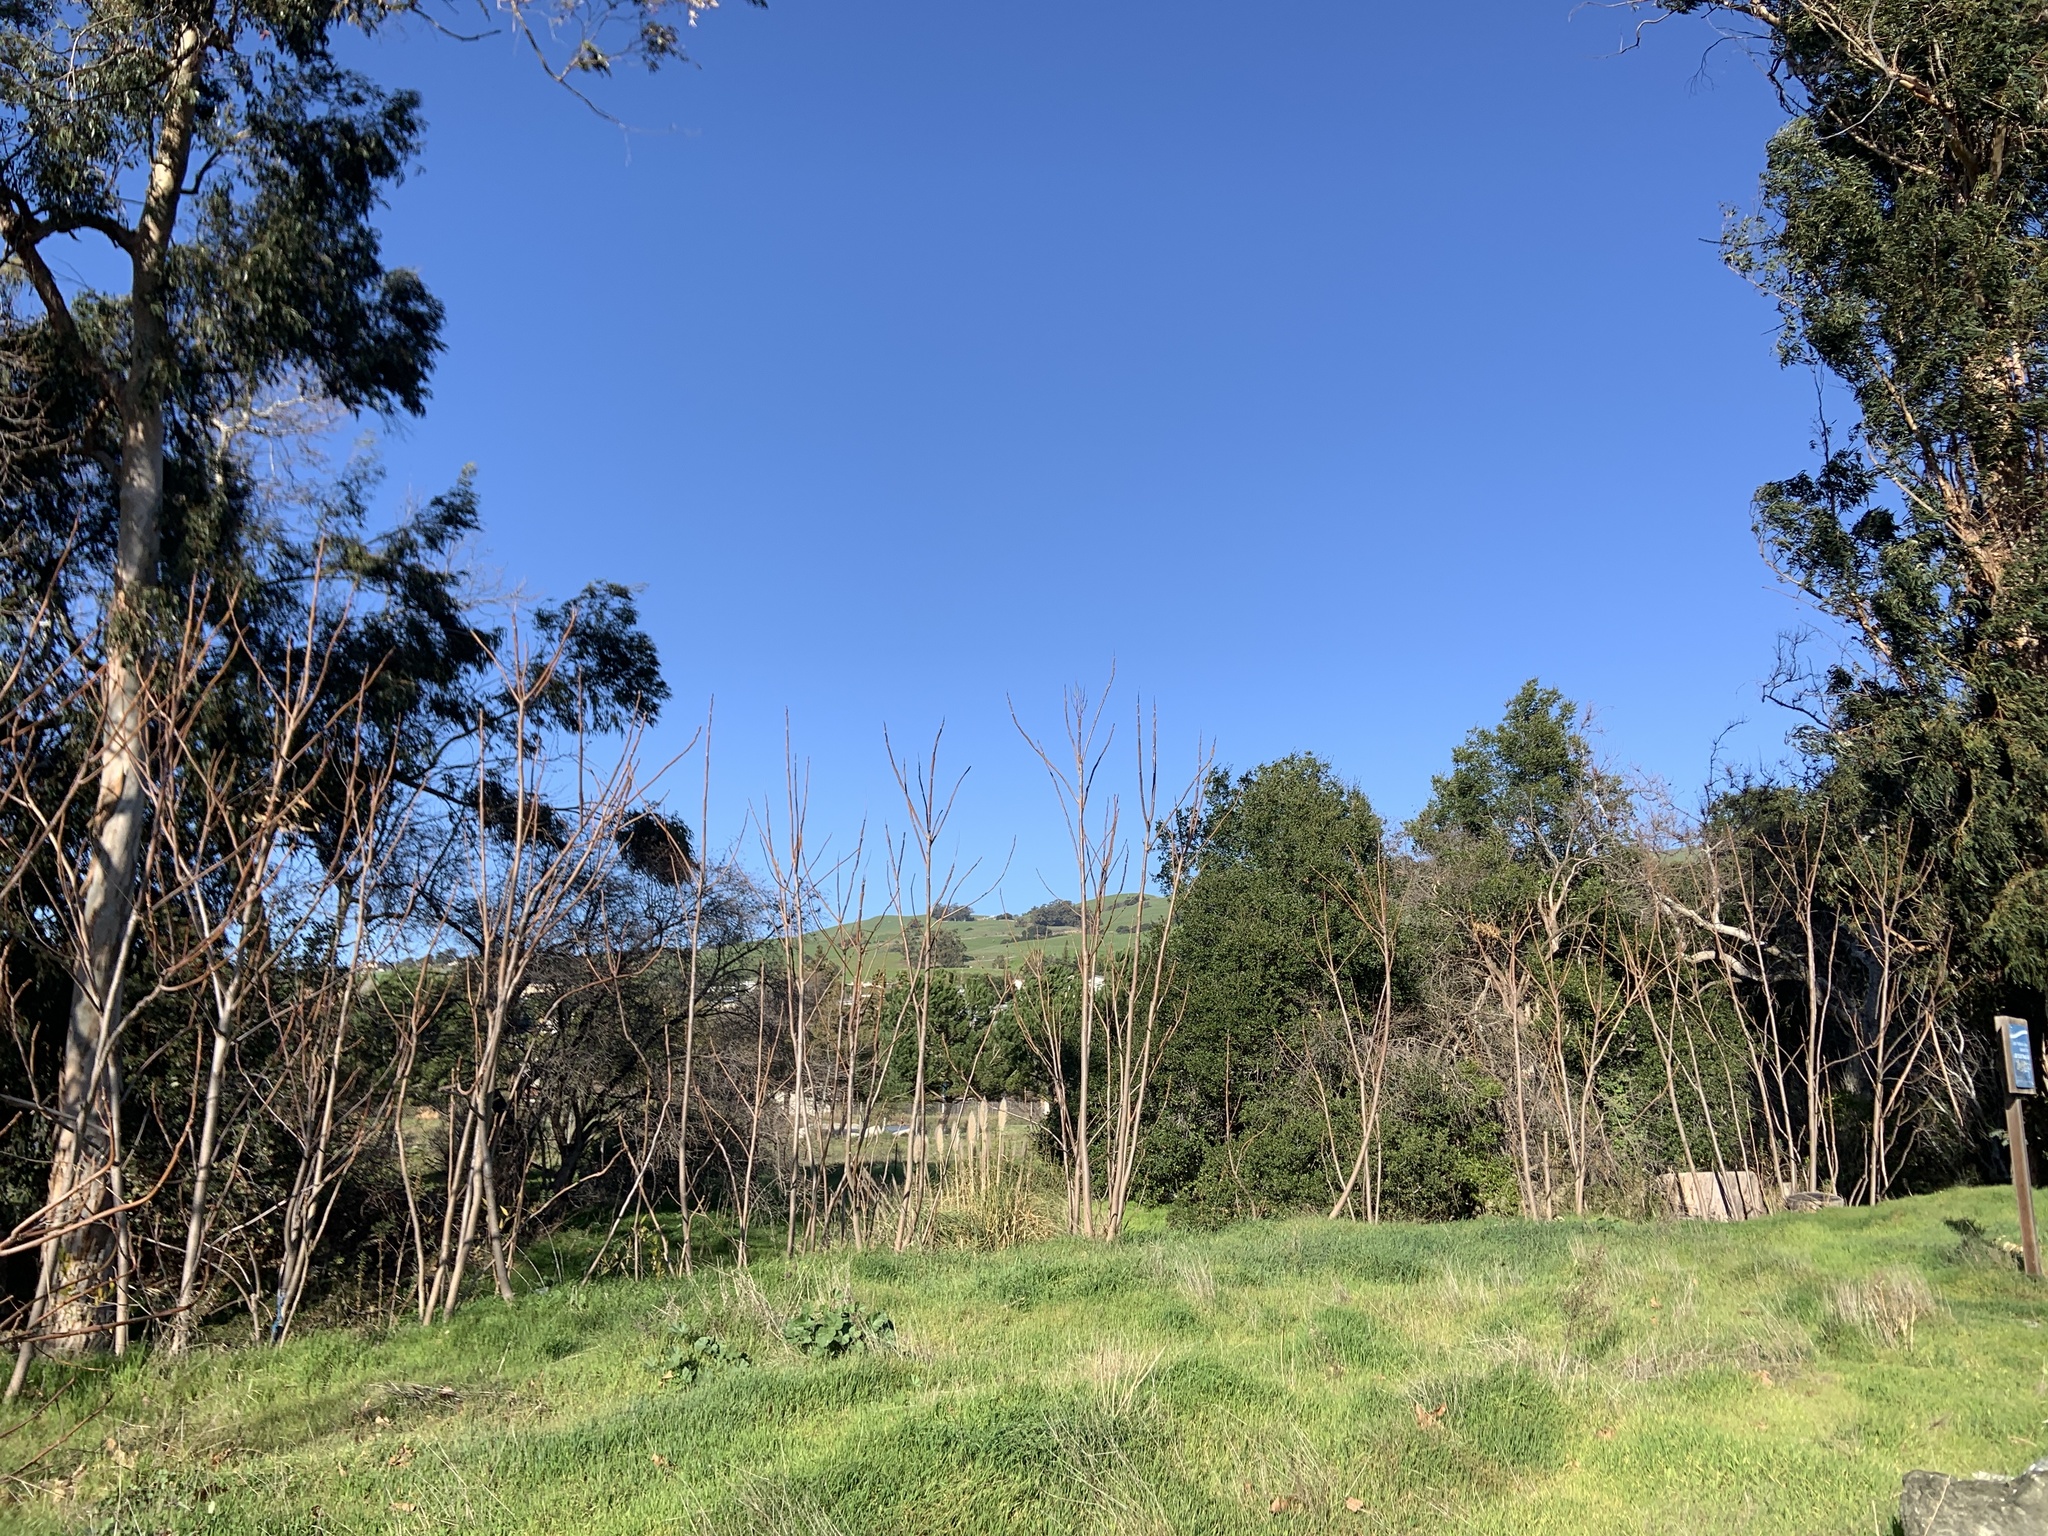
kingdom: Plantae
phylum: Tracheophyta
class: Magnoliopsida
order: Sapindales
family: Simaroubaceae
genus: Ailanthus
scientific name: Ailanthus altissima
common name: Tree-of-heaven
